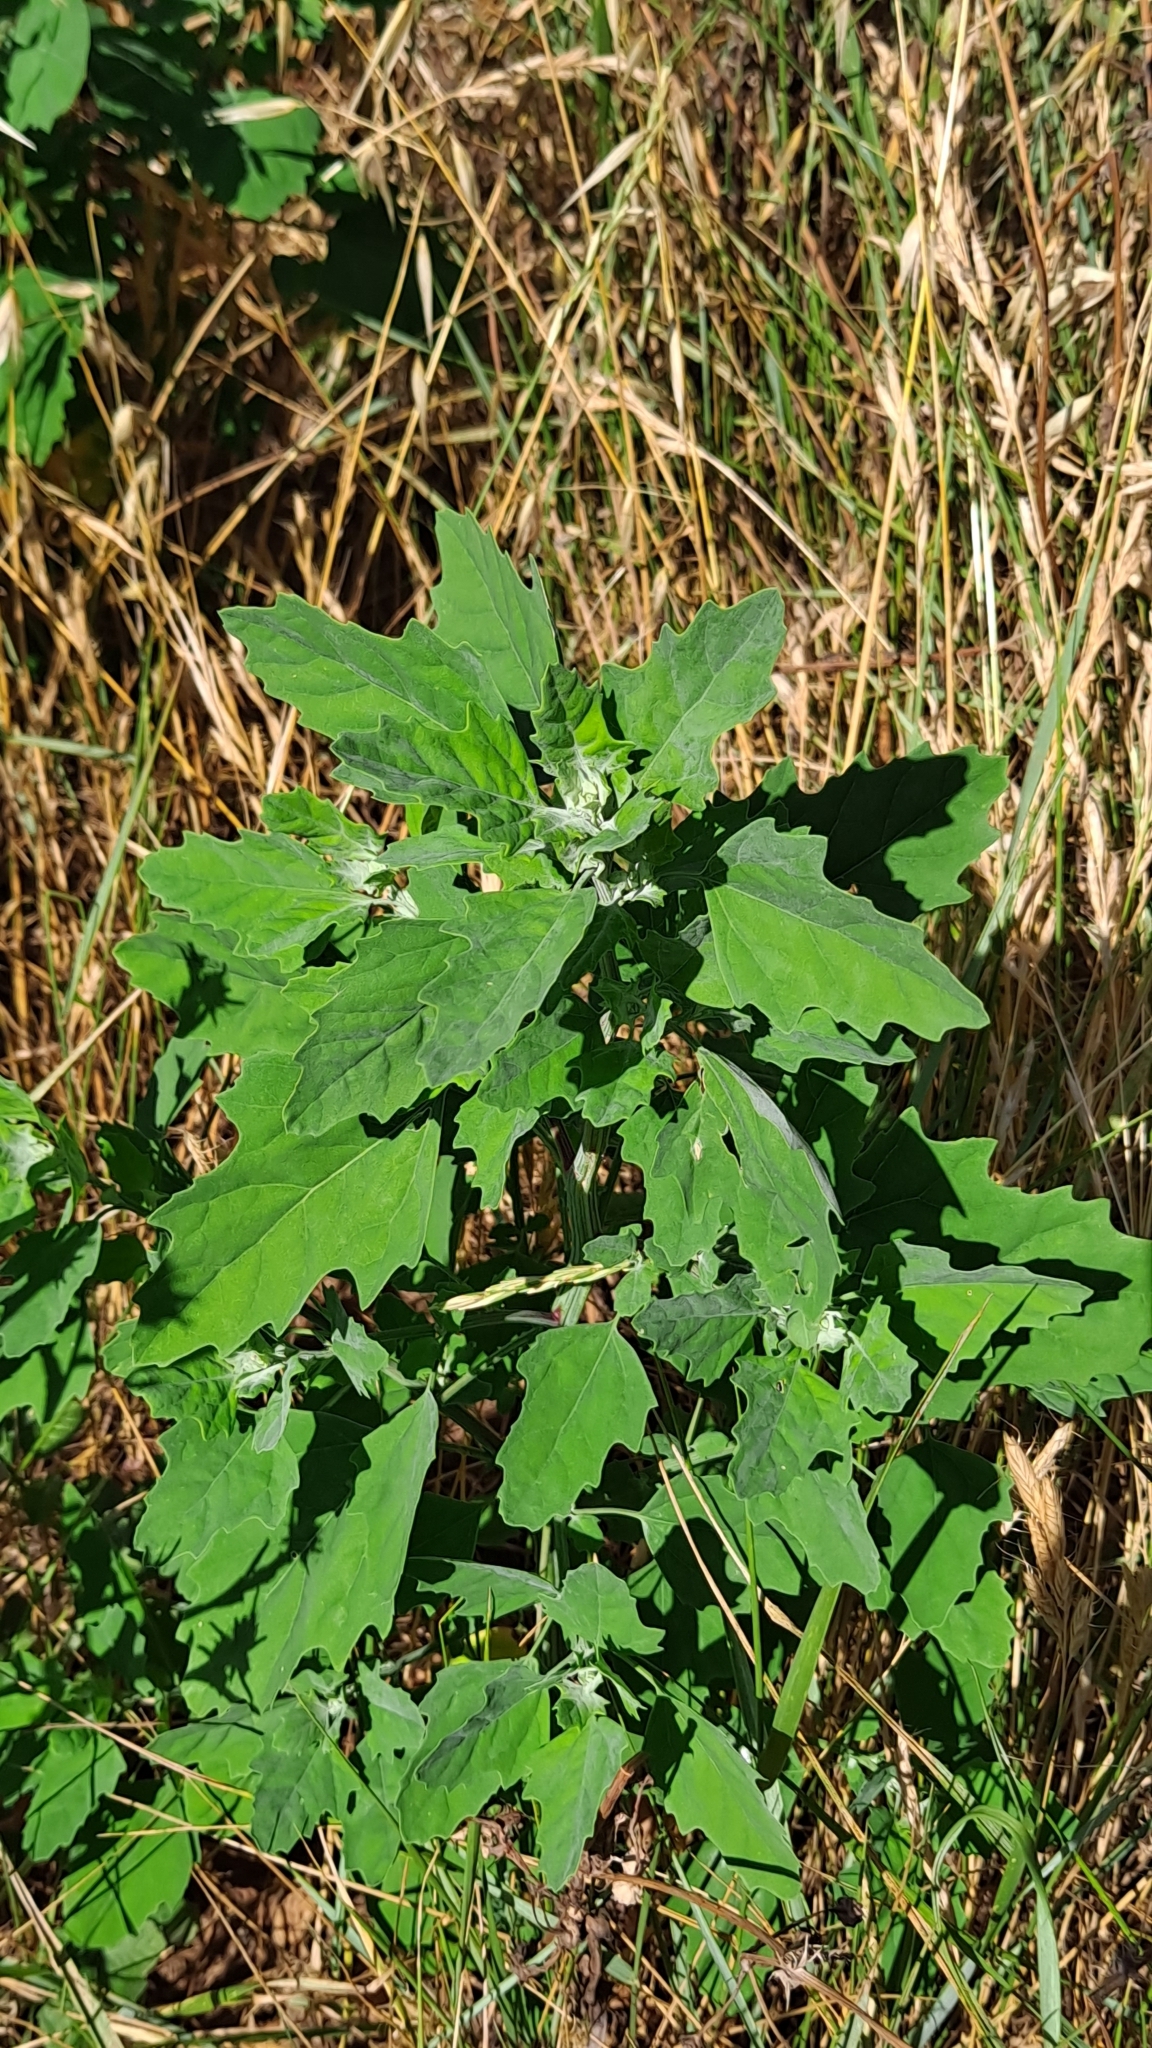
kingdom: Plantae
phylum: Tracheophyta
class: Magnoliopsida
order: Caryophyllales
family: Amaranthaceae
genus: Chenopodium
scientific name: Chenopodium album
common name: Fat-hen
